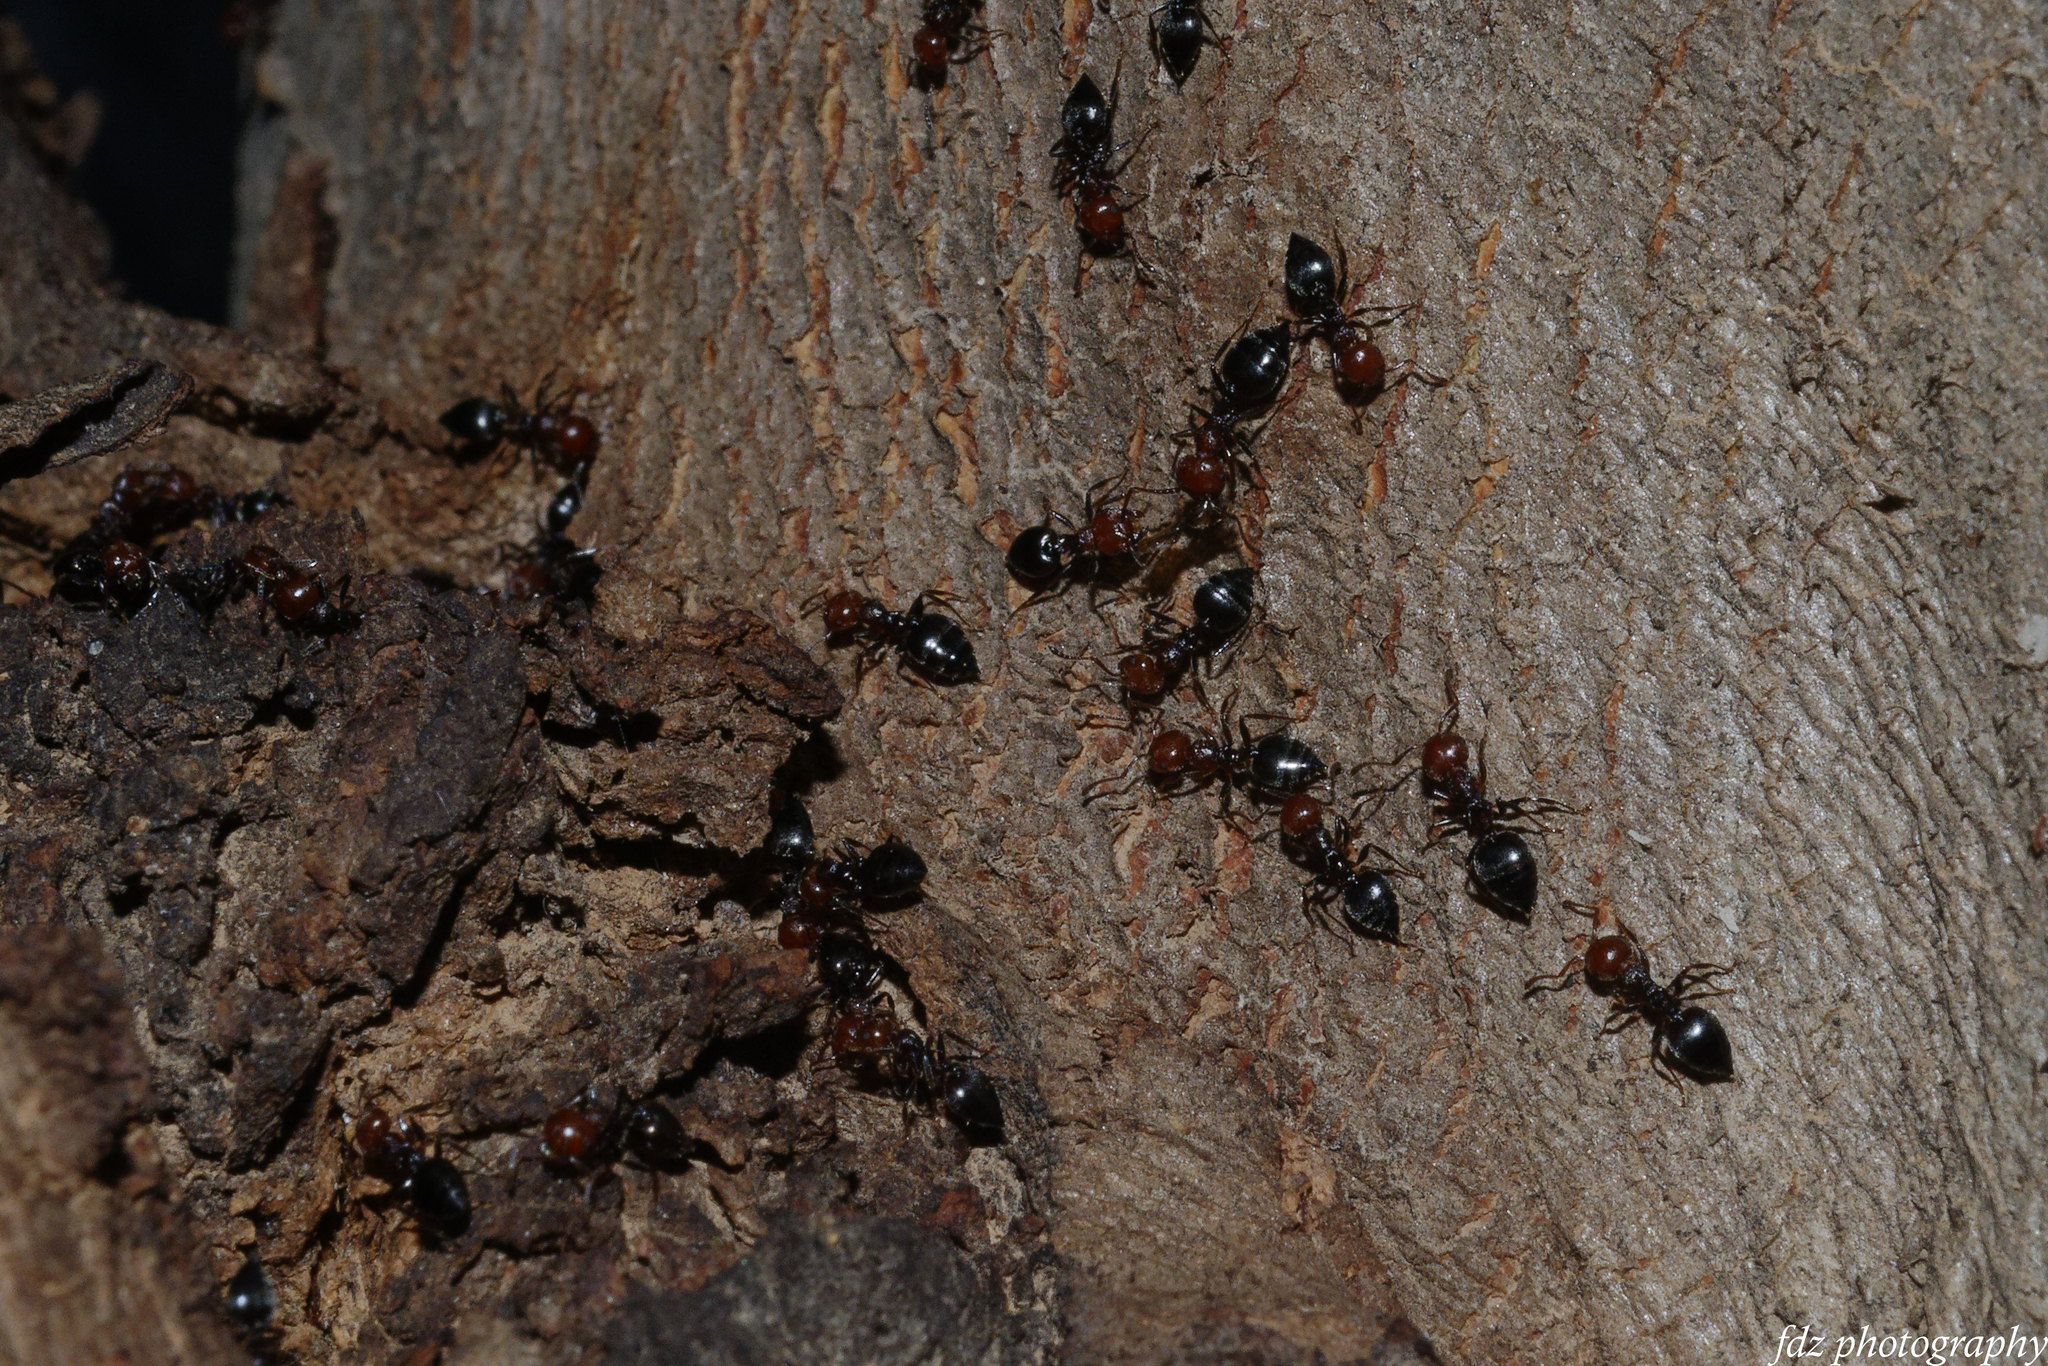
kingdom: Animalia
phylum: Arthropoda
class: Insecta
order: Hymenoptera
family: Formicidae
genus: Crematogaster
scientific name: Crematogaster scutellaris
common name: Fourmi du liège
